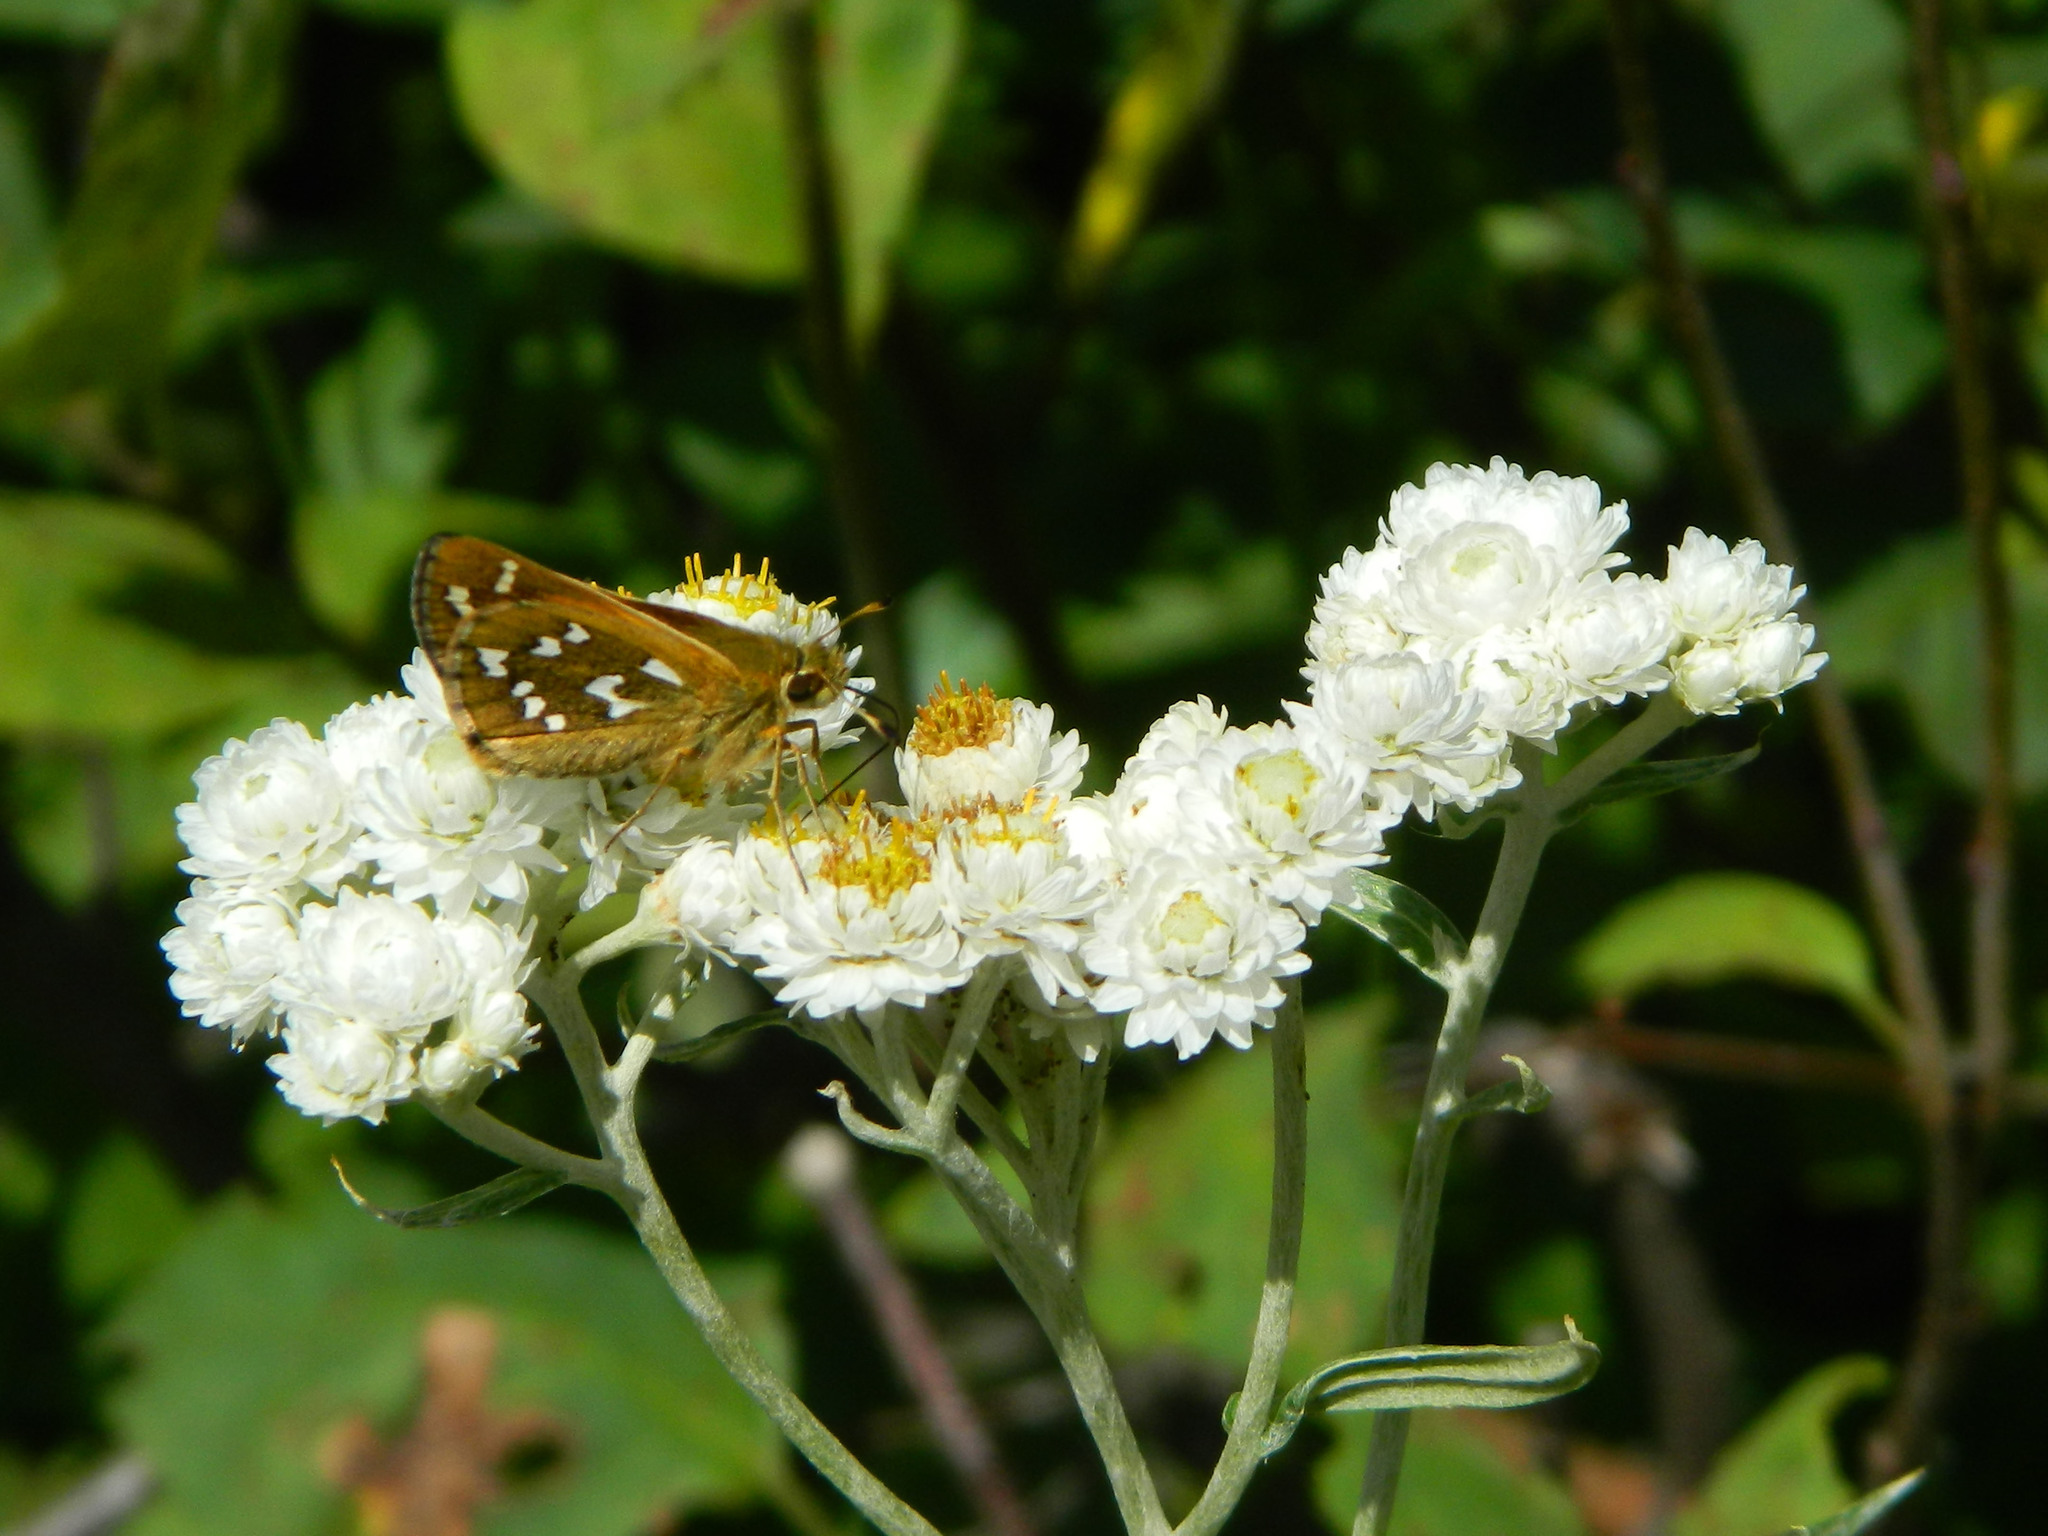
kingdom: Animalia
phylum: Arthropoda
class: Insecta
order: Lepidoptera
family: Hesperiidae
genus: Hesperia
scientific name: Hesperia comma
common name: Common branded skipper
